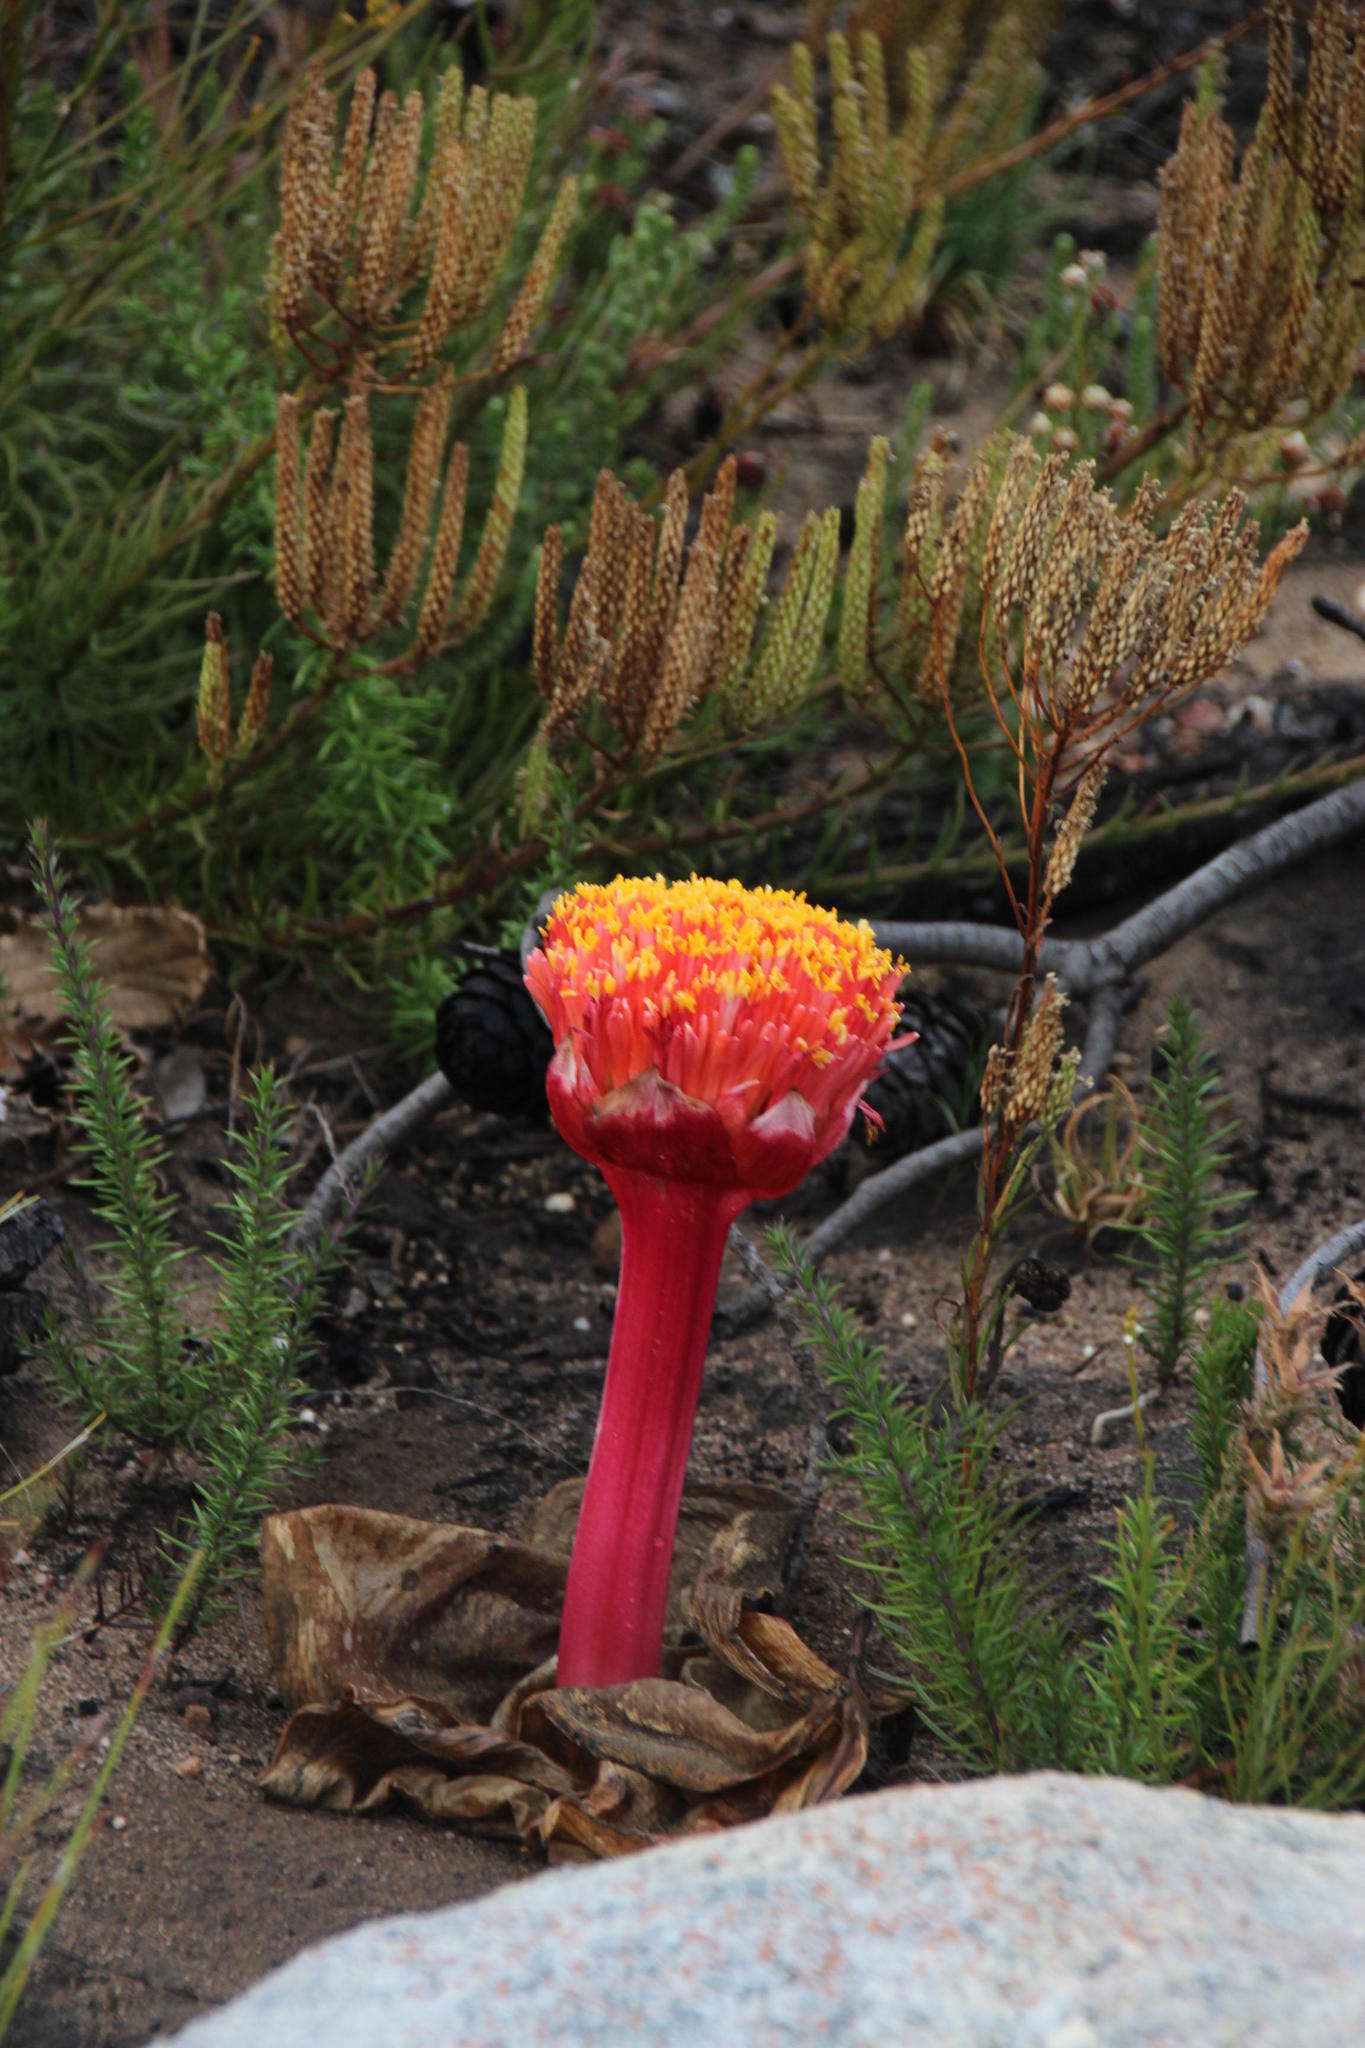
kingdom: Plantae
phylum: Tracheophyta
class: Liliopsida
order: Asparagales
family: Amaryllidaceae
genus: Haemanthus
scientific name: Haemanthus sanguineus
